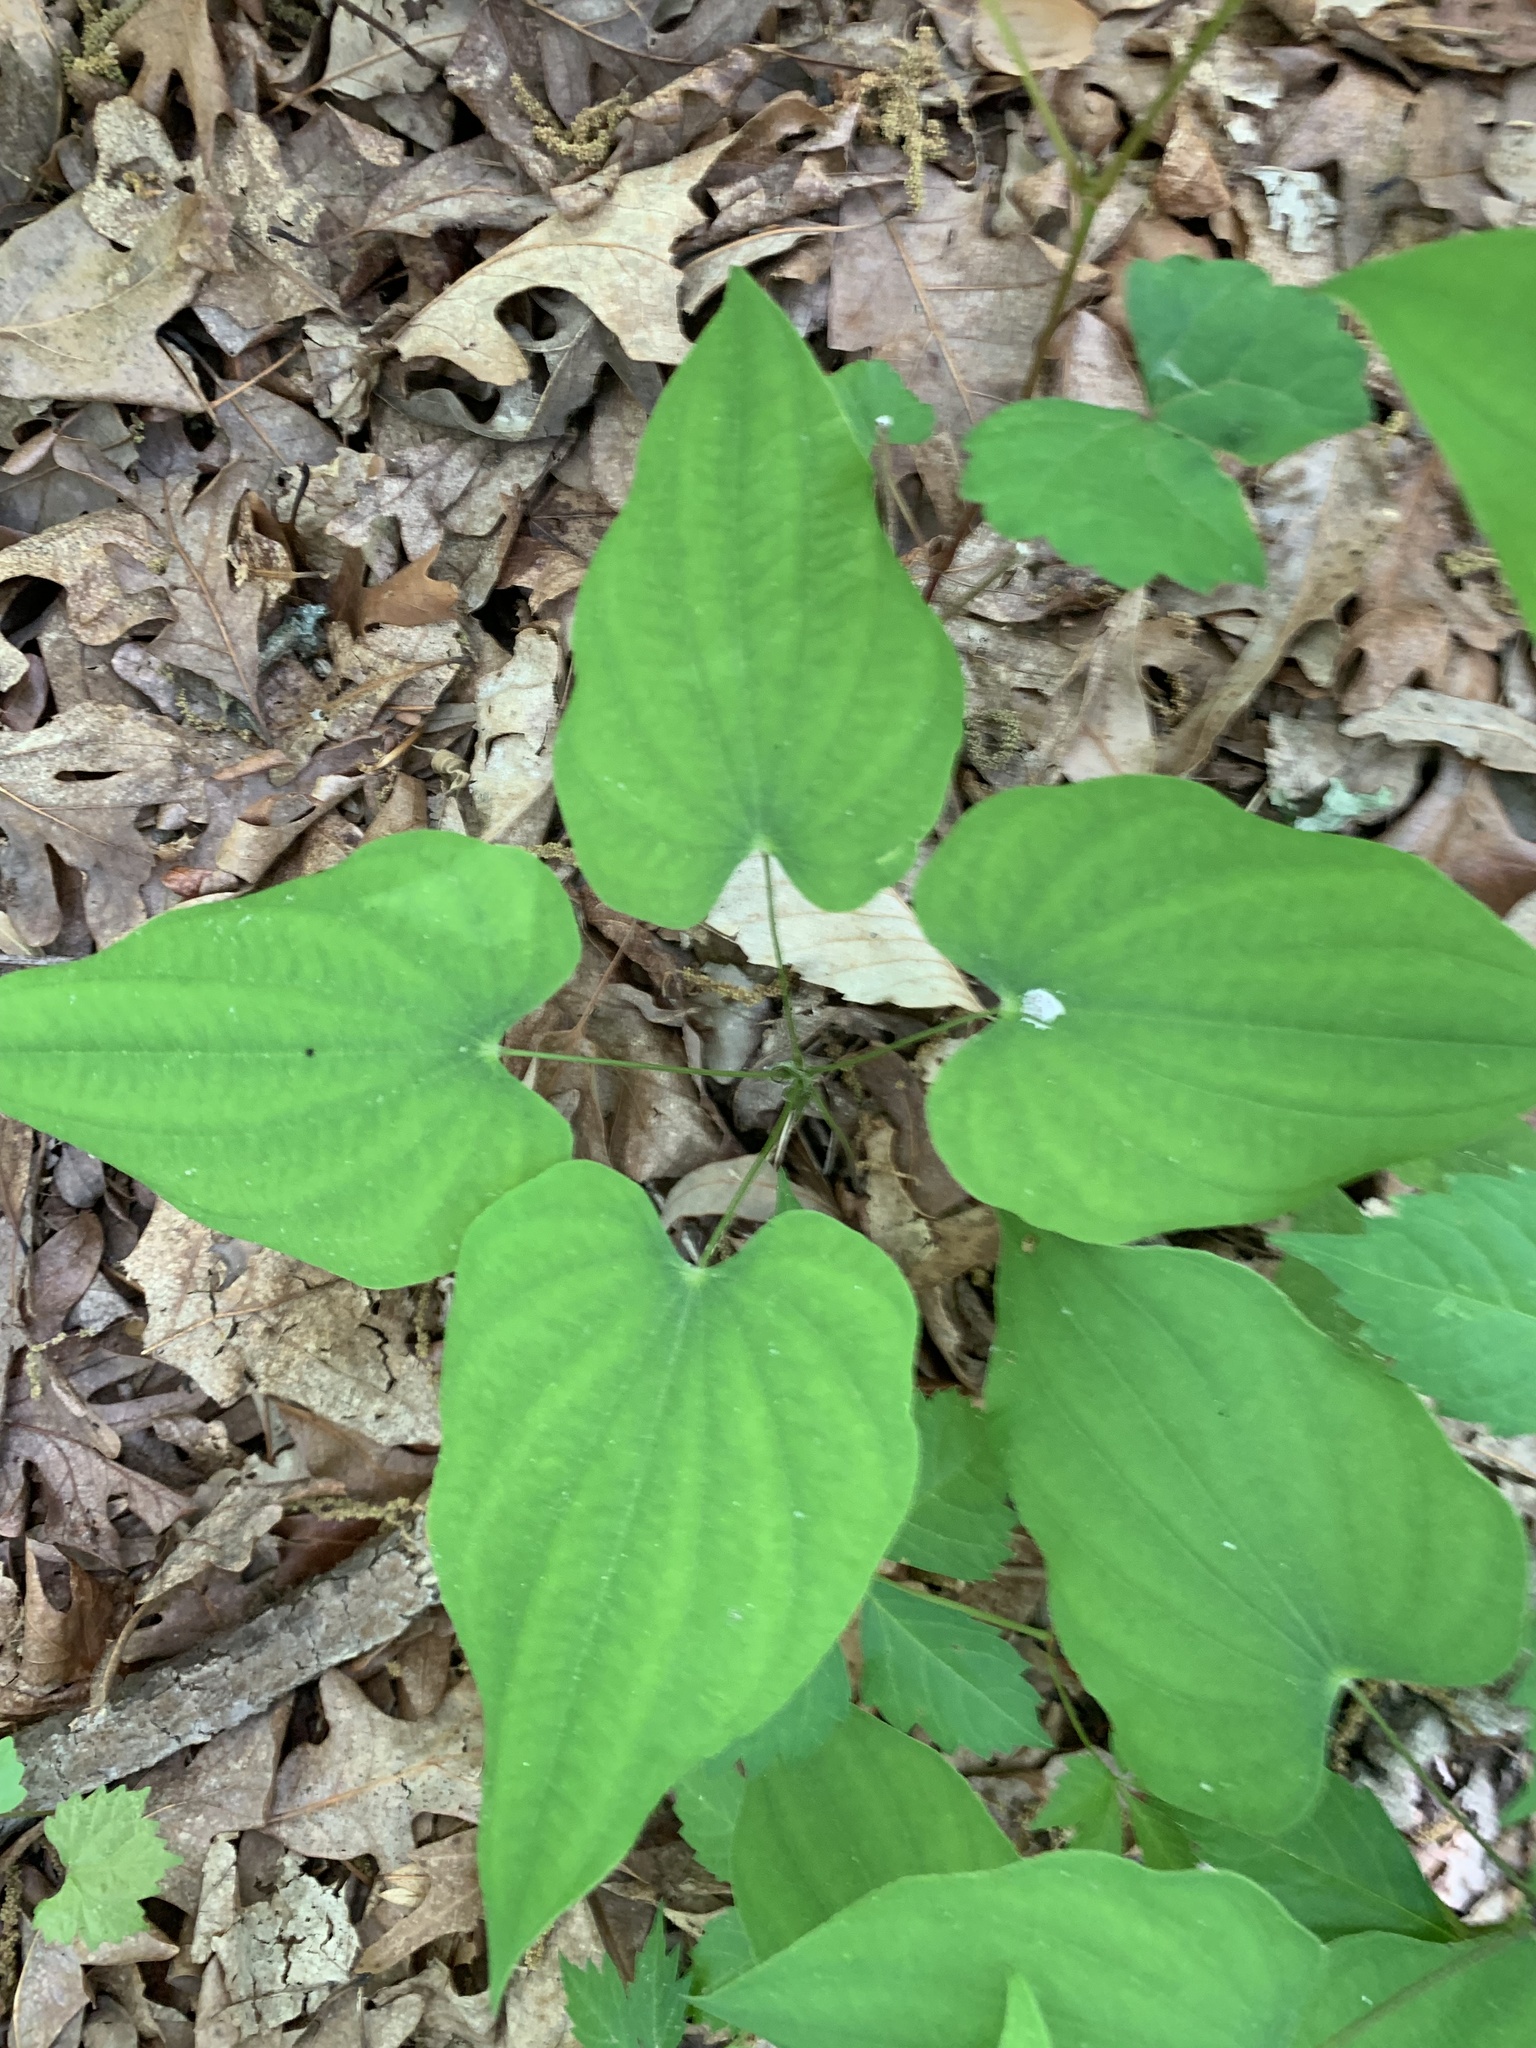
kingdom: Plantae
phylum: Tracheophyta
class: Liliopsida
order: Dioscoreales
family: Dioscoreaceae
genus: Dioscorea
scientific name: Dioscorea villosa
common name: Wild yam
